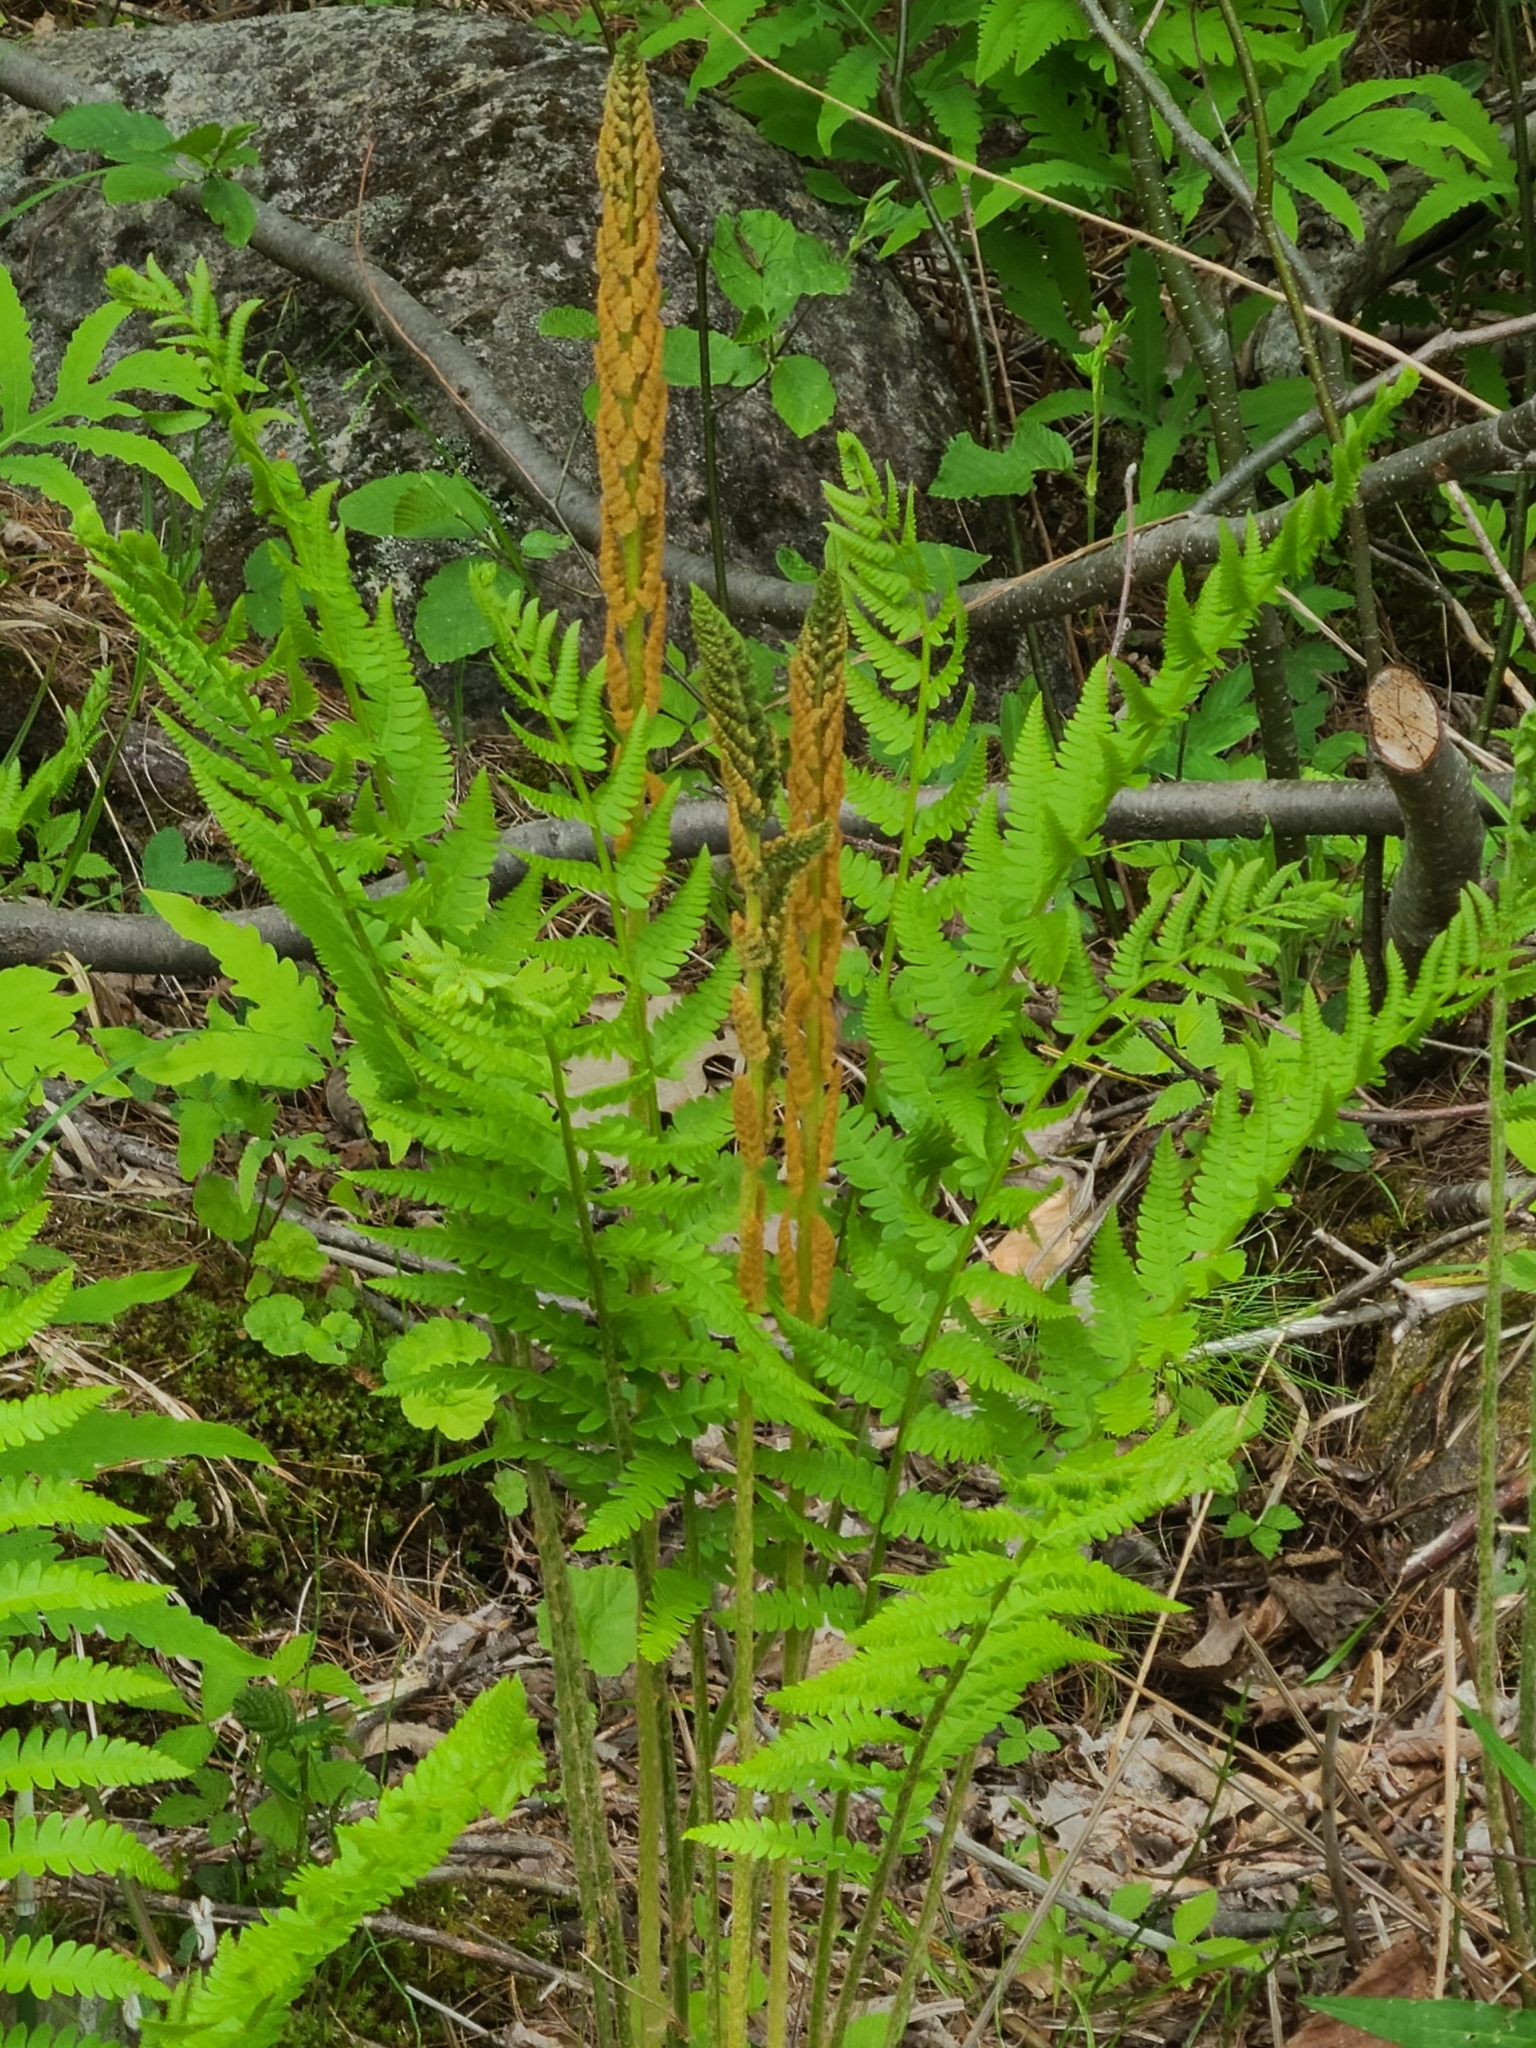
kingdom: Plantae
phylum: Tracheophyta
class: Polypodiopsida
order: Osmundales
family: Osmundaceae
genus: Osmundastrum
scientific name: Osmundastrum cinnamomeum
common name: Cinnamon fern
